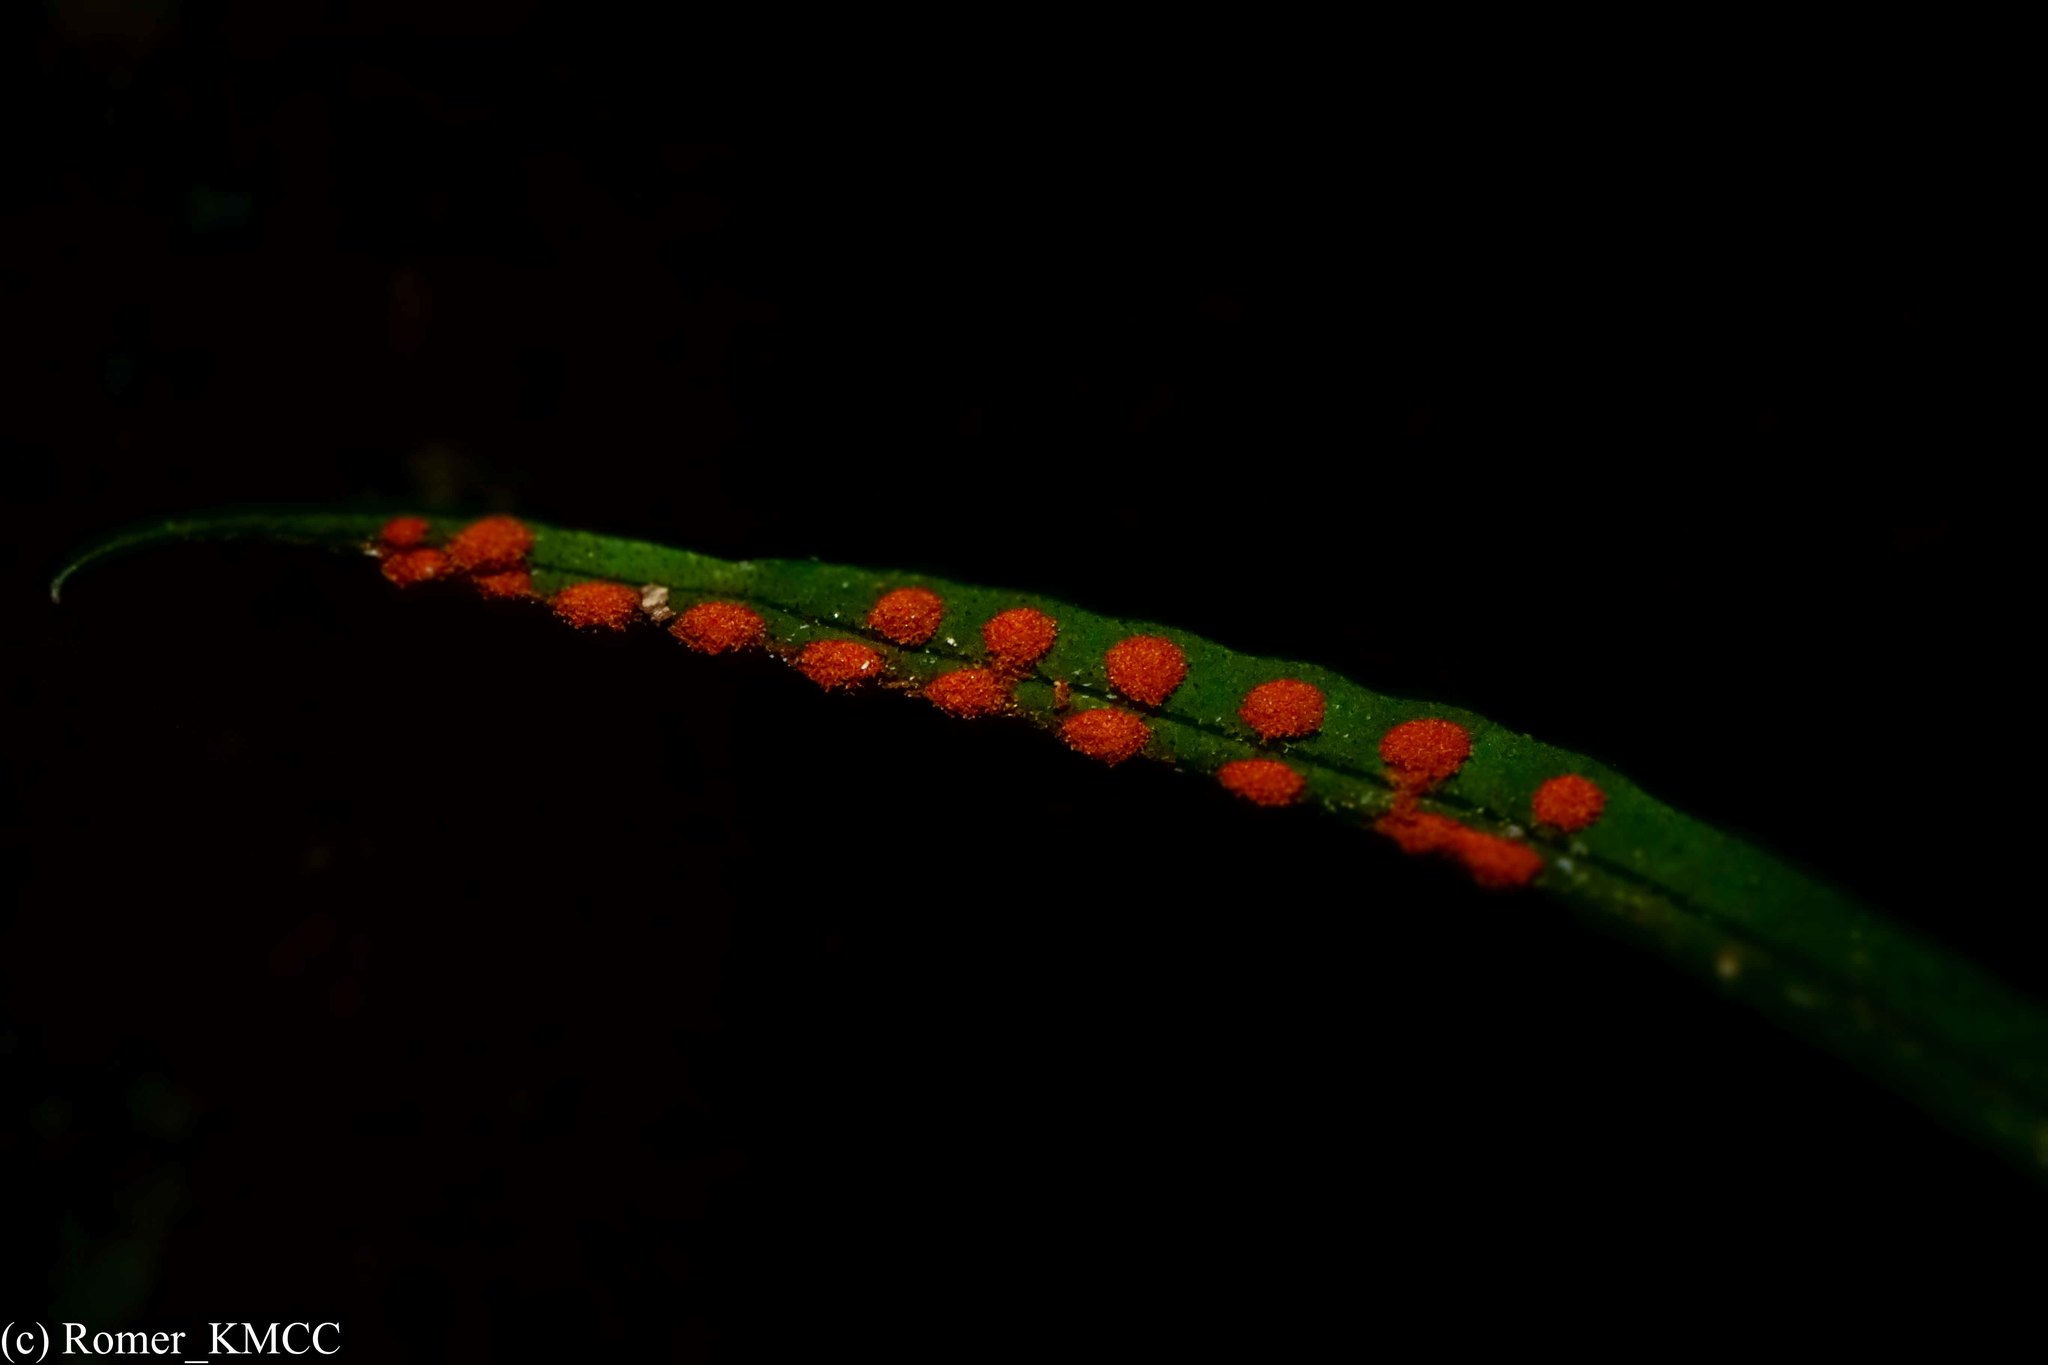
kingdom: Plantae
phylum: Tracheophyta
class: Polypodiopsida
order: Polypodiales
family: Polypodiaceae
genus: Lepisorus
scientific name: Lepisorus excavatus
